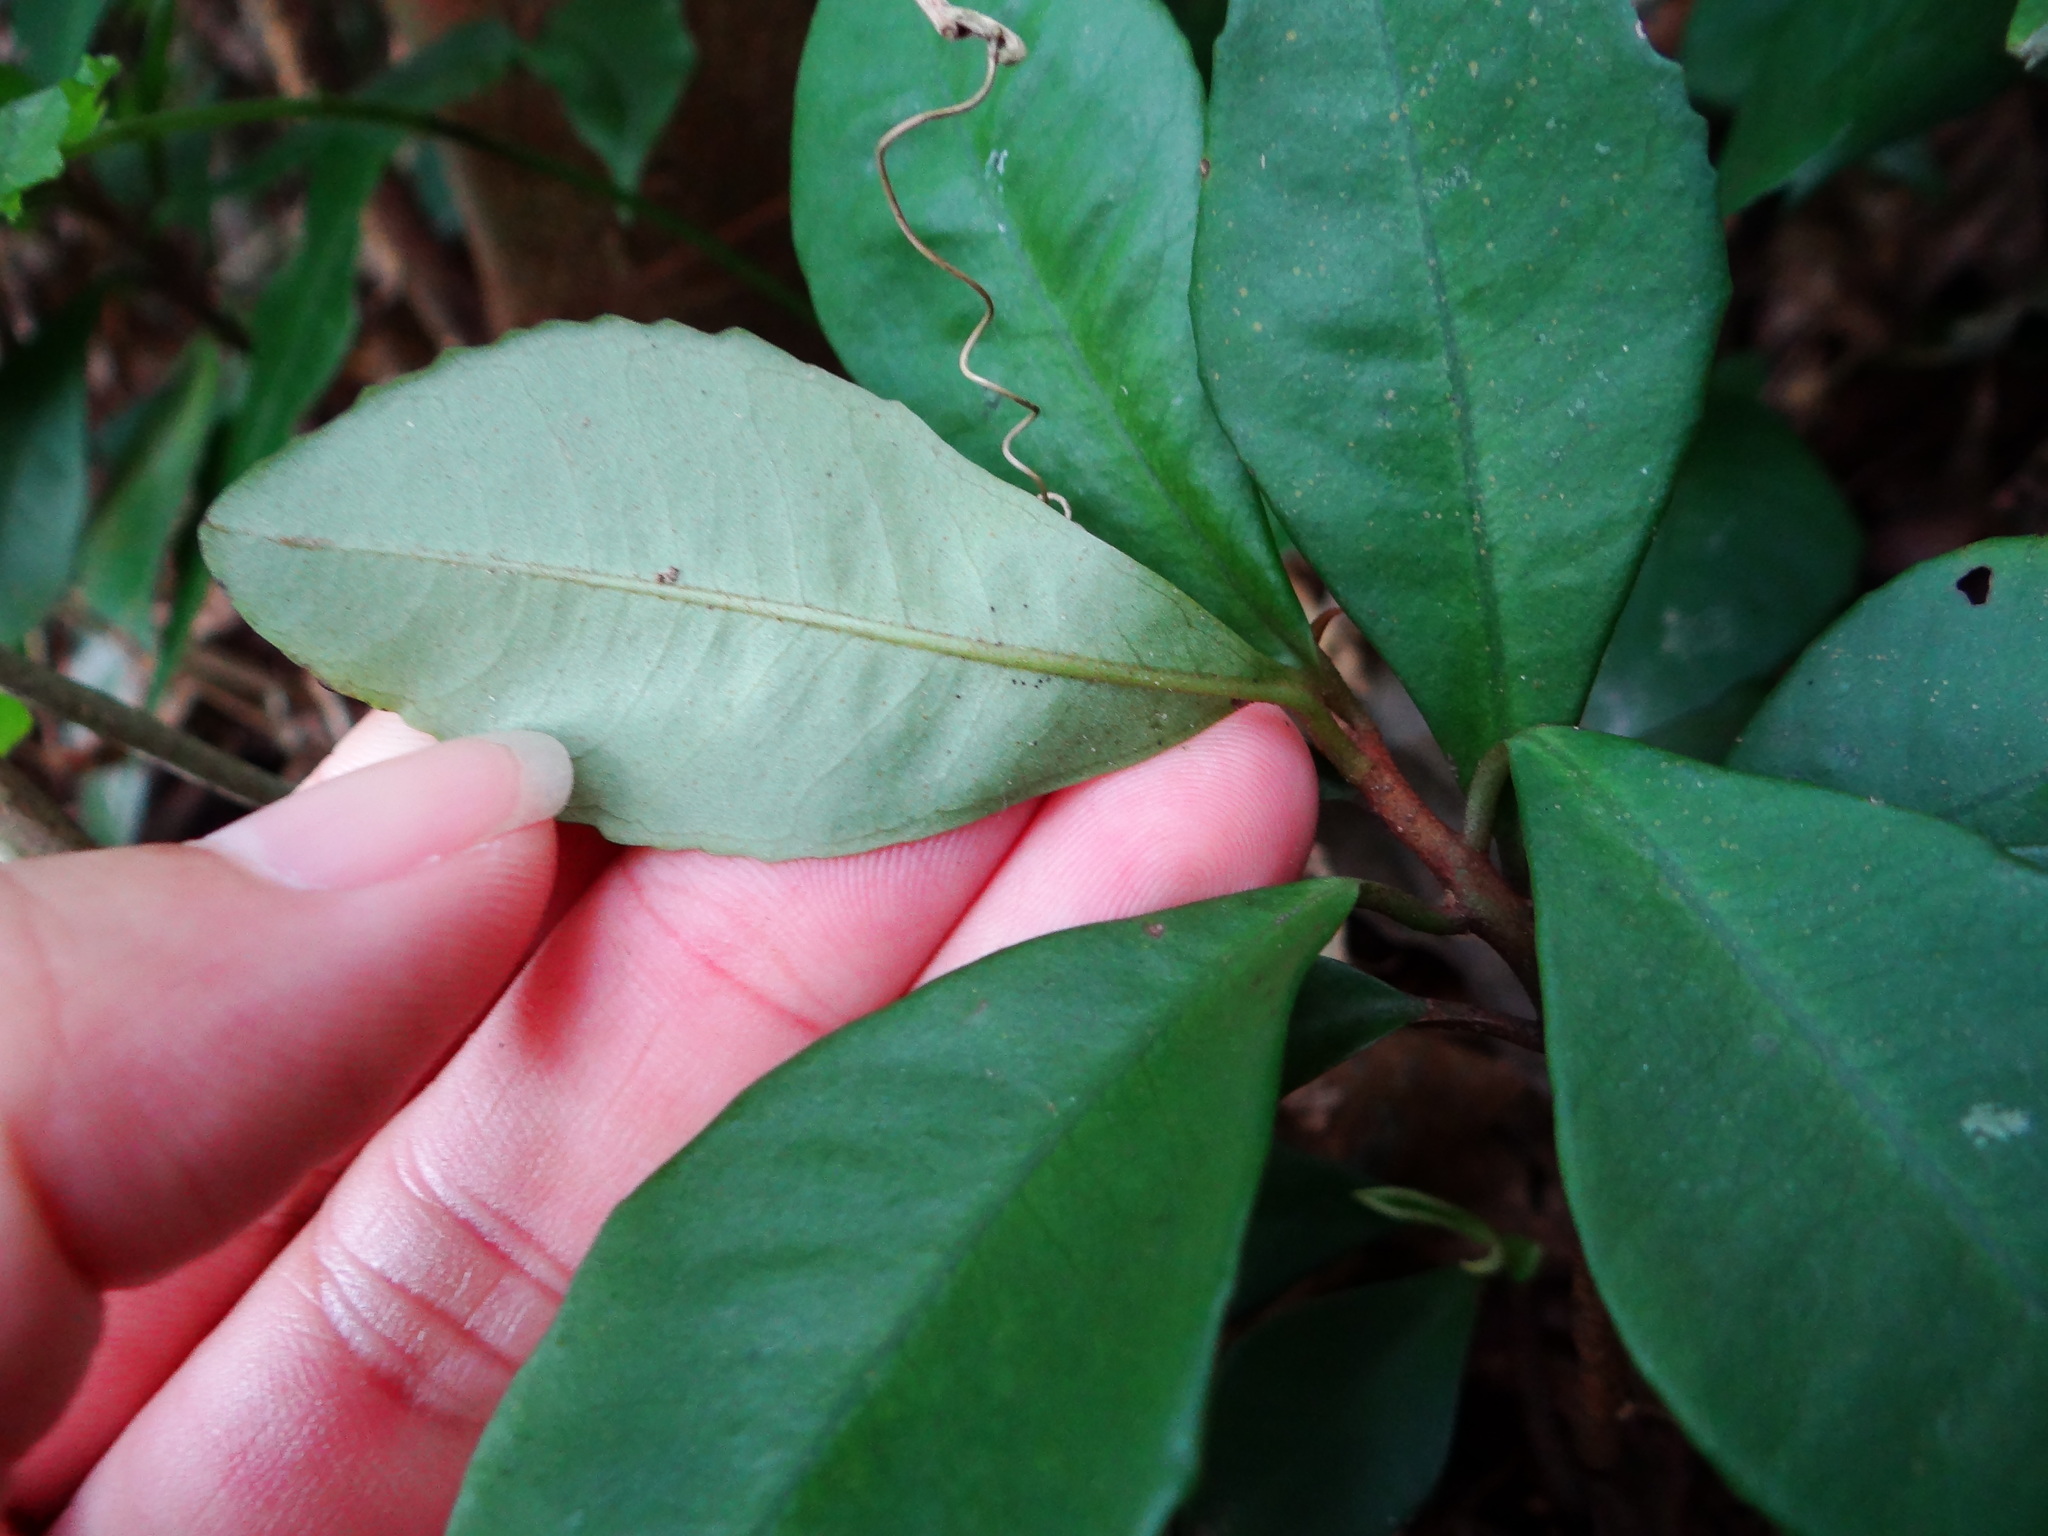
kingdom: Plantae
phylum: Tracheophyta
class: Magnoliopsida
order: Ericales
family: Primulaceae
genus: Ardisia
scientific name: Ardisia cymosa
